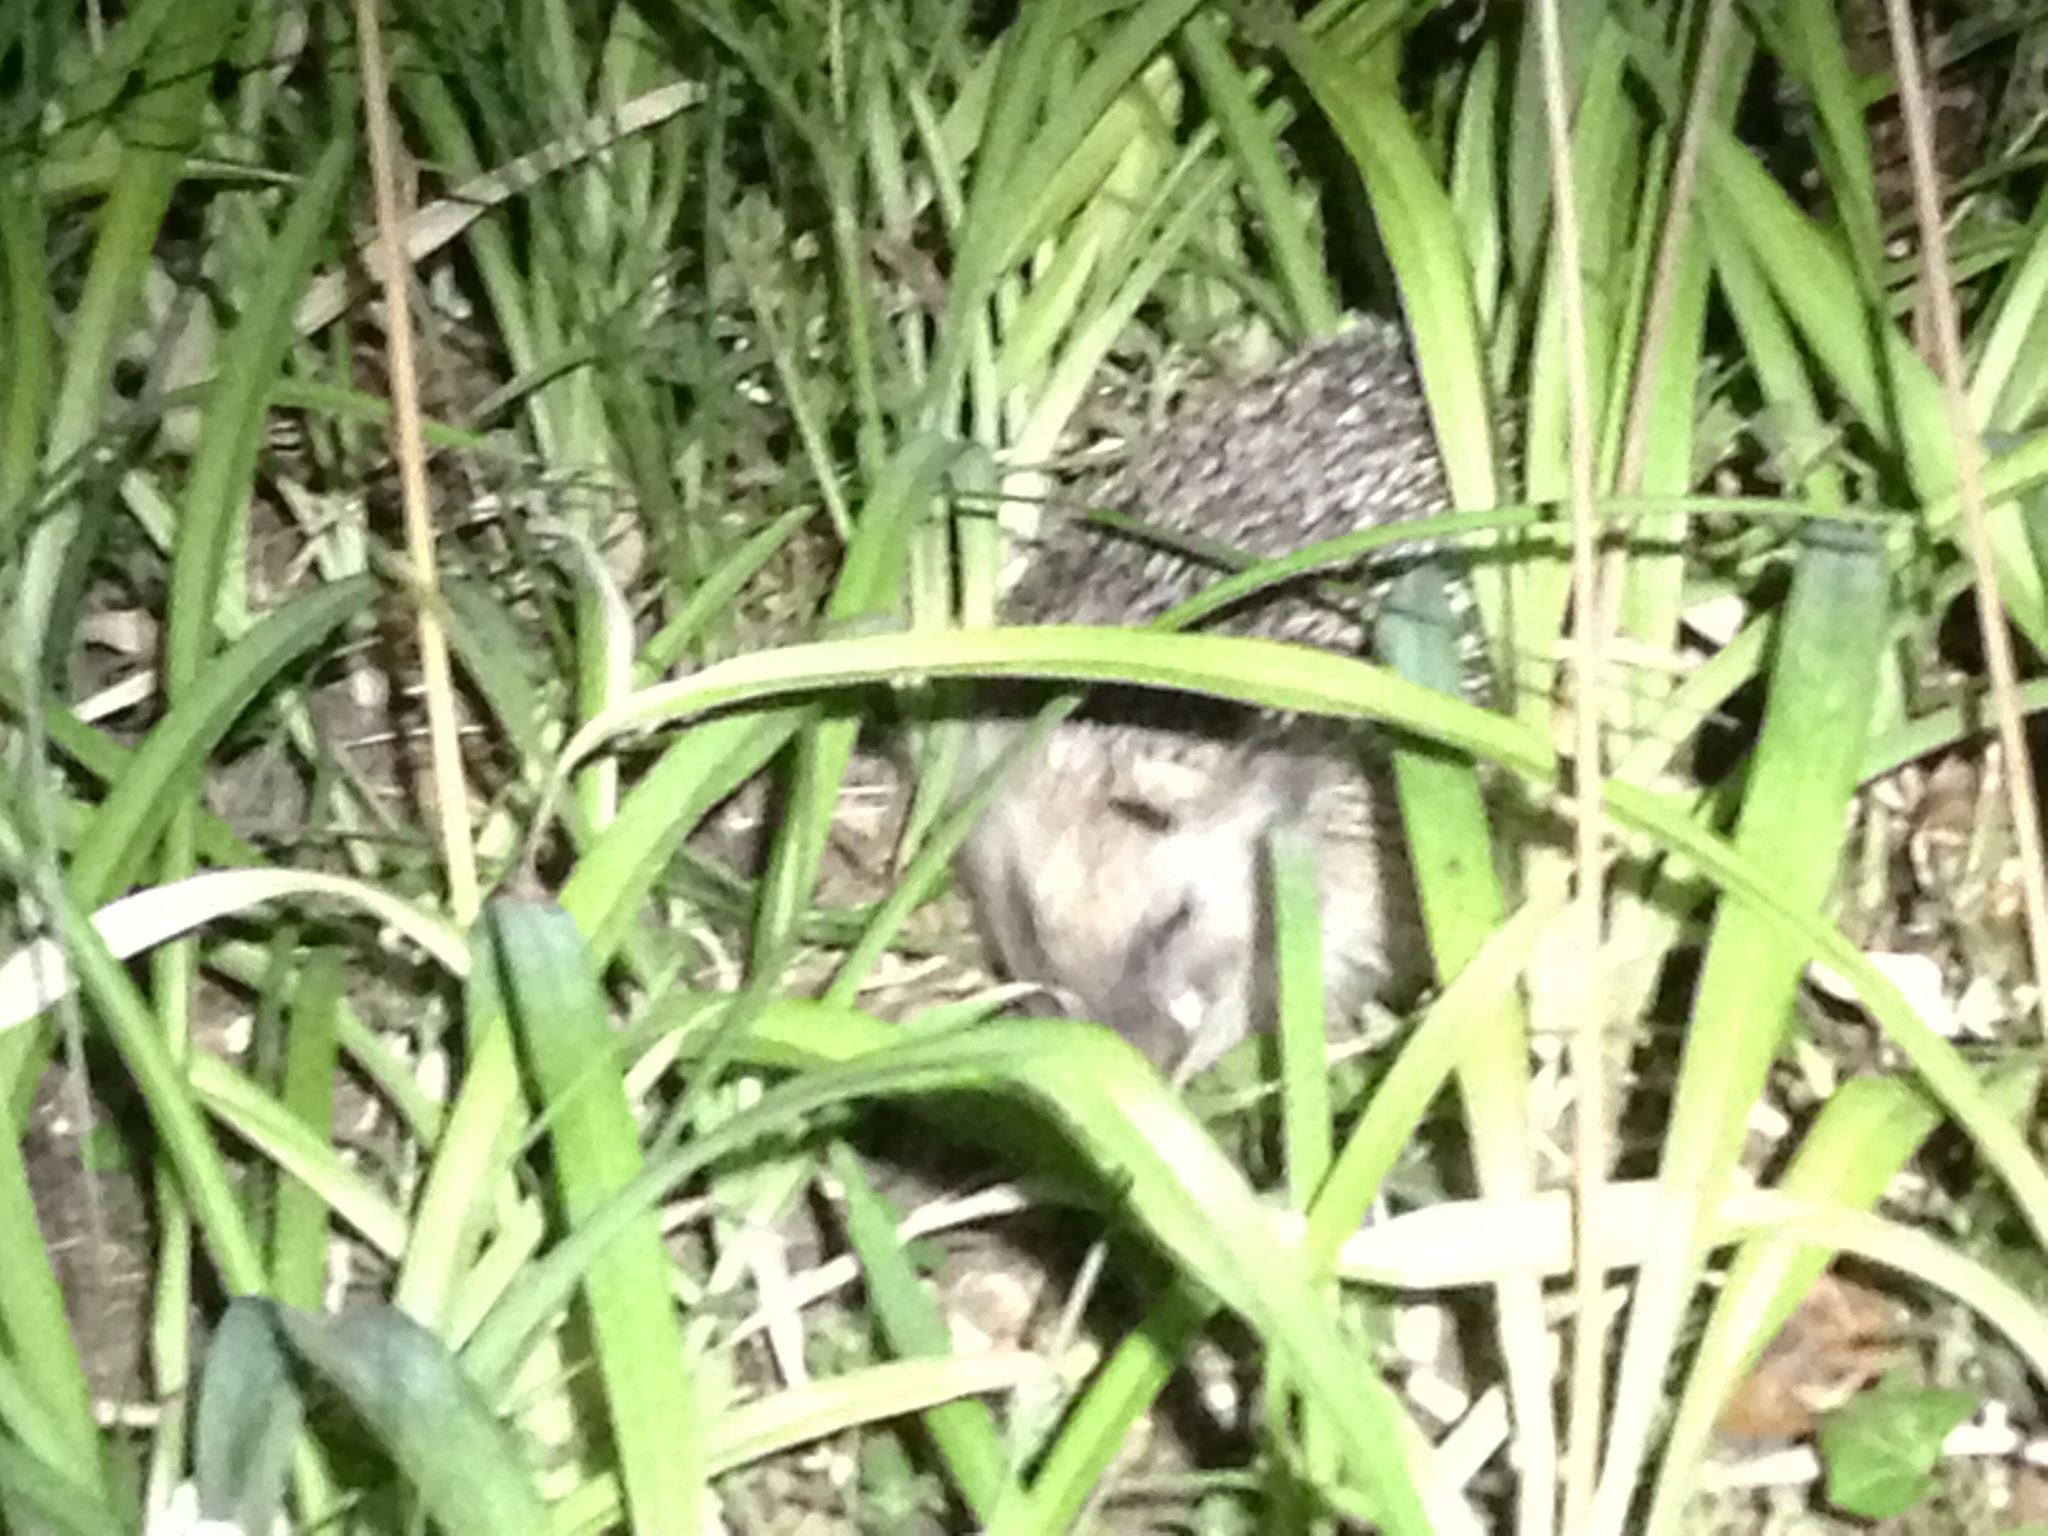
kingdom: Animalia
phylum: Chordata
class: Mammalia
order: Erinaceomorpha
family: Erinaceidae
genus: Erinaceus
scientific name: Erinaceus europaeus
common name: West european hedgehog
